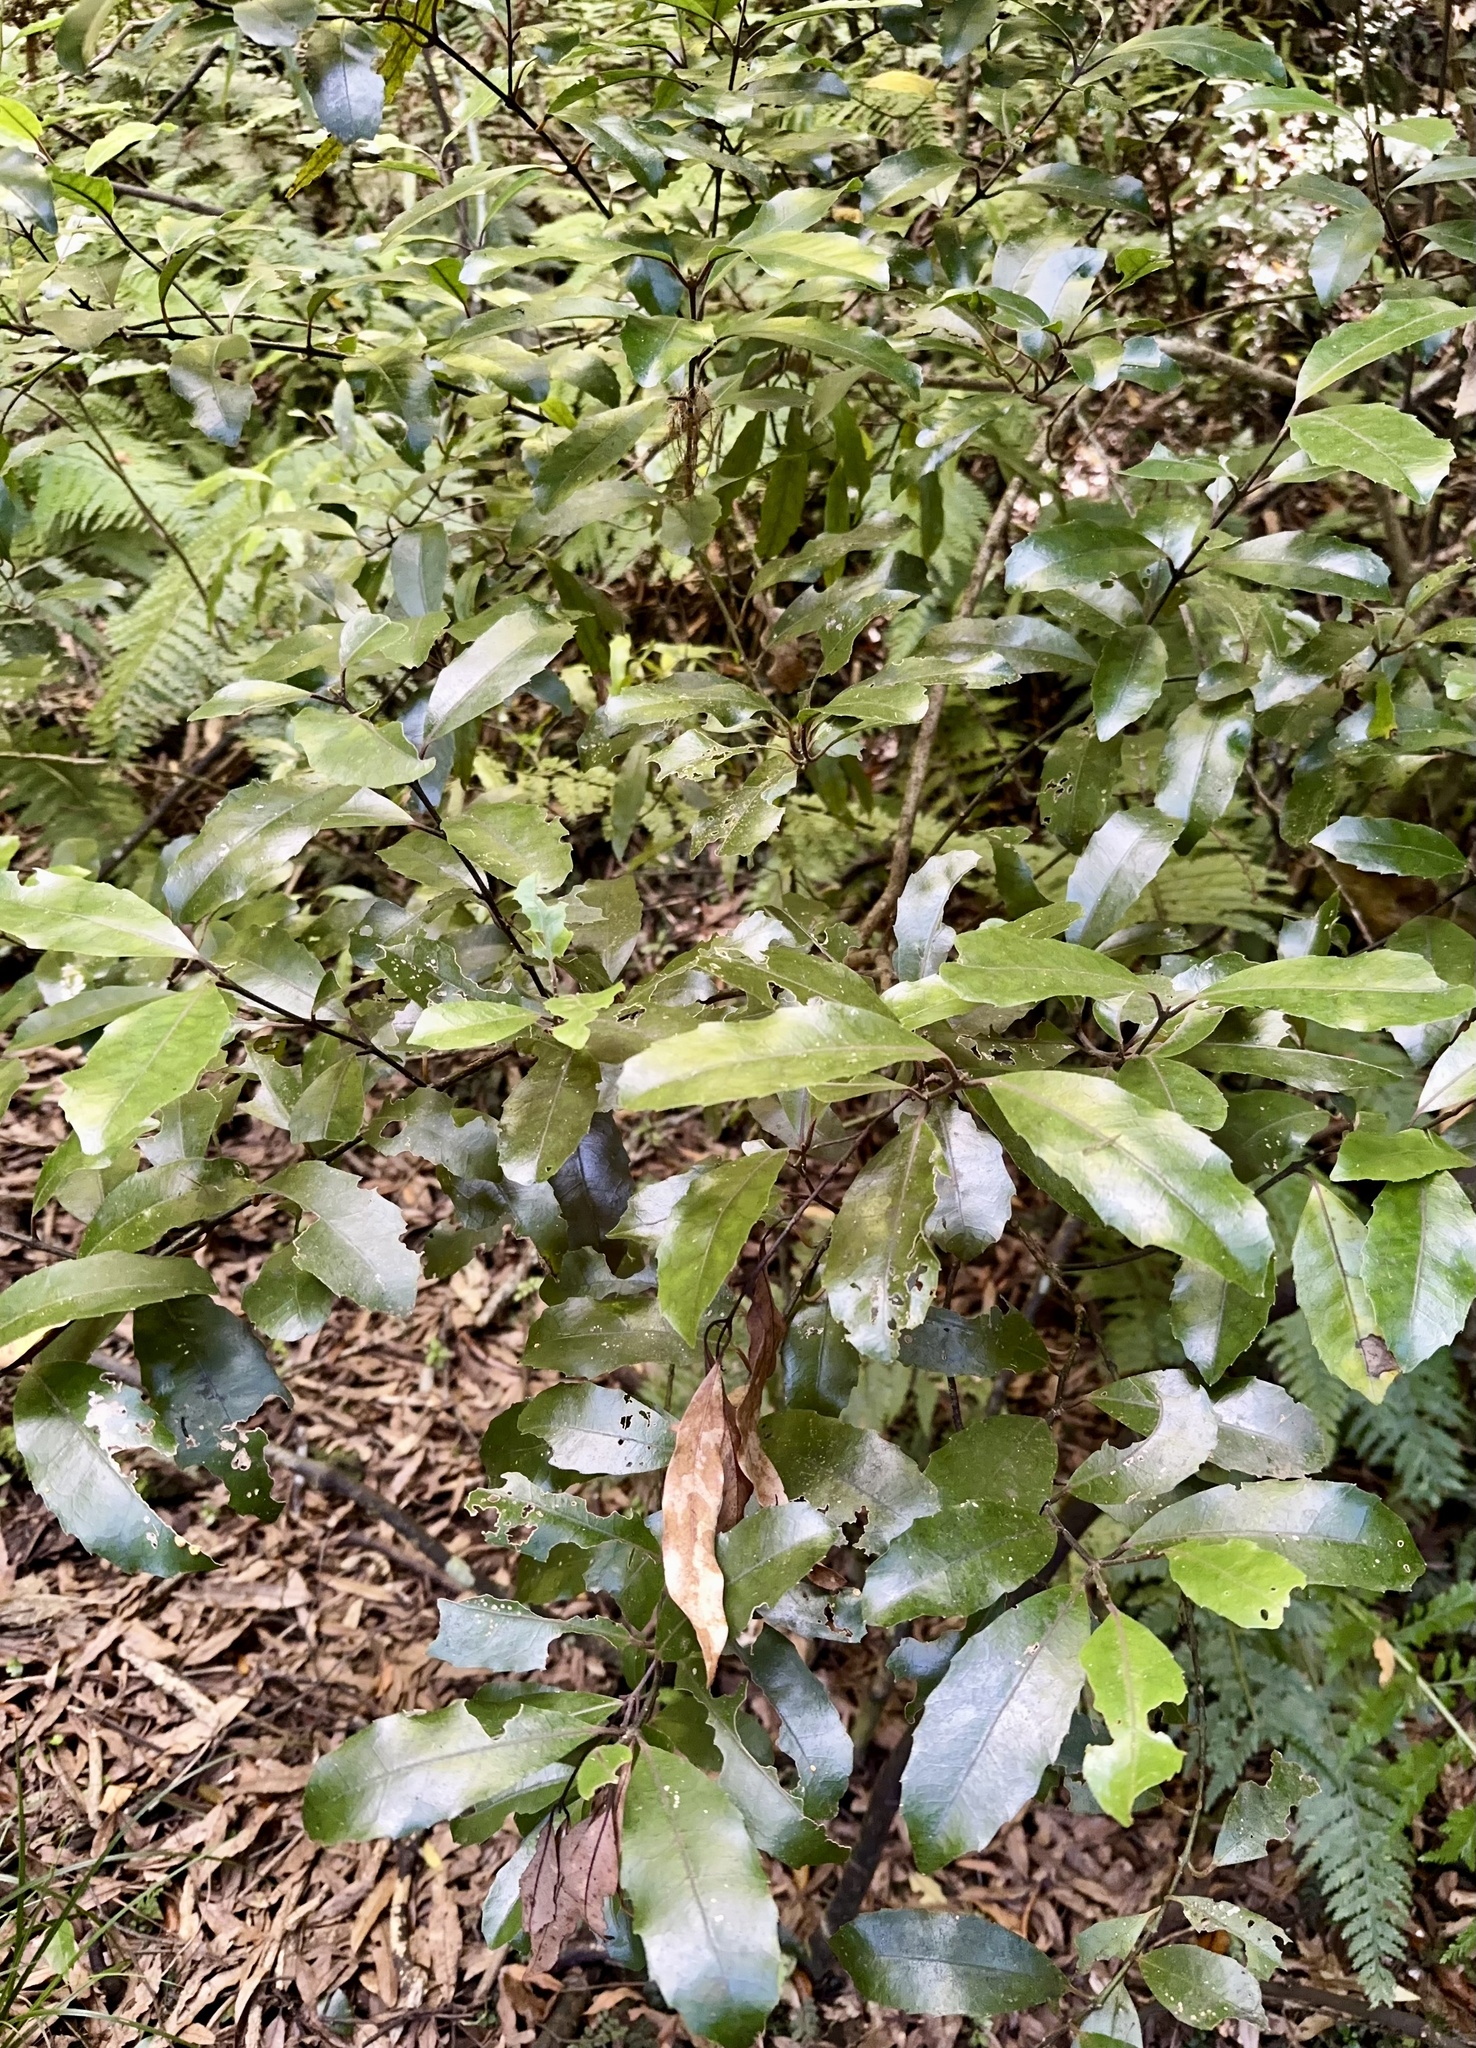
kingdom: Plantae
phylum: Tracheophyta
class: Magnoliopsida
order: Laurales
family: Monimiaceae
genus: Hedycarya
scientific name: Hedycarya arborea
